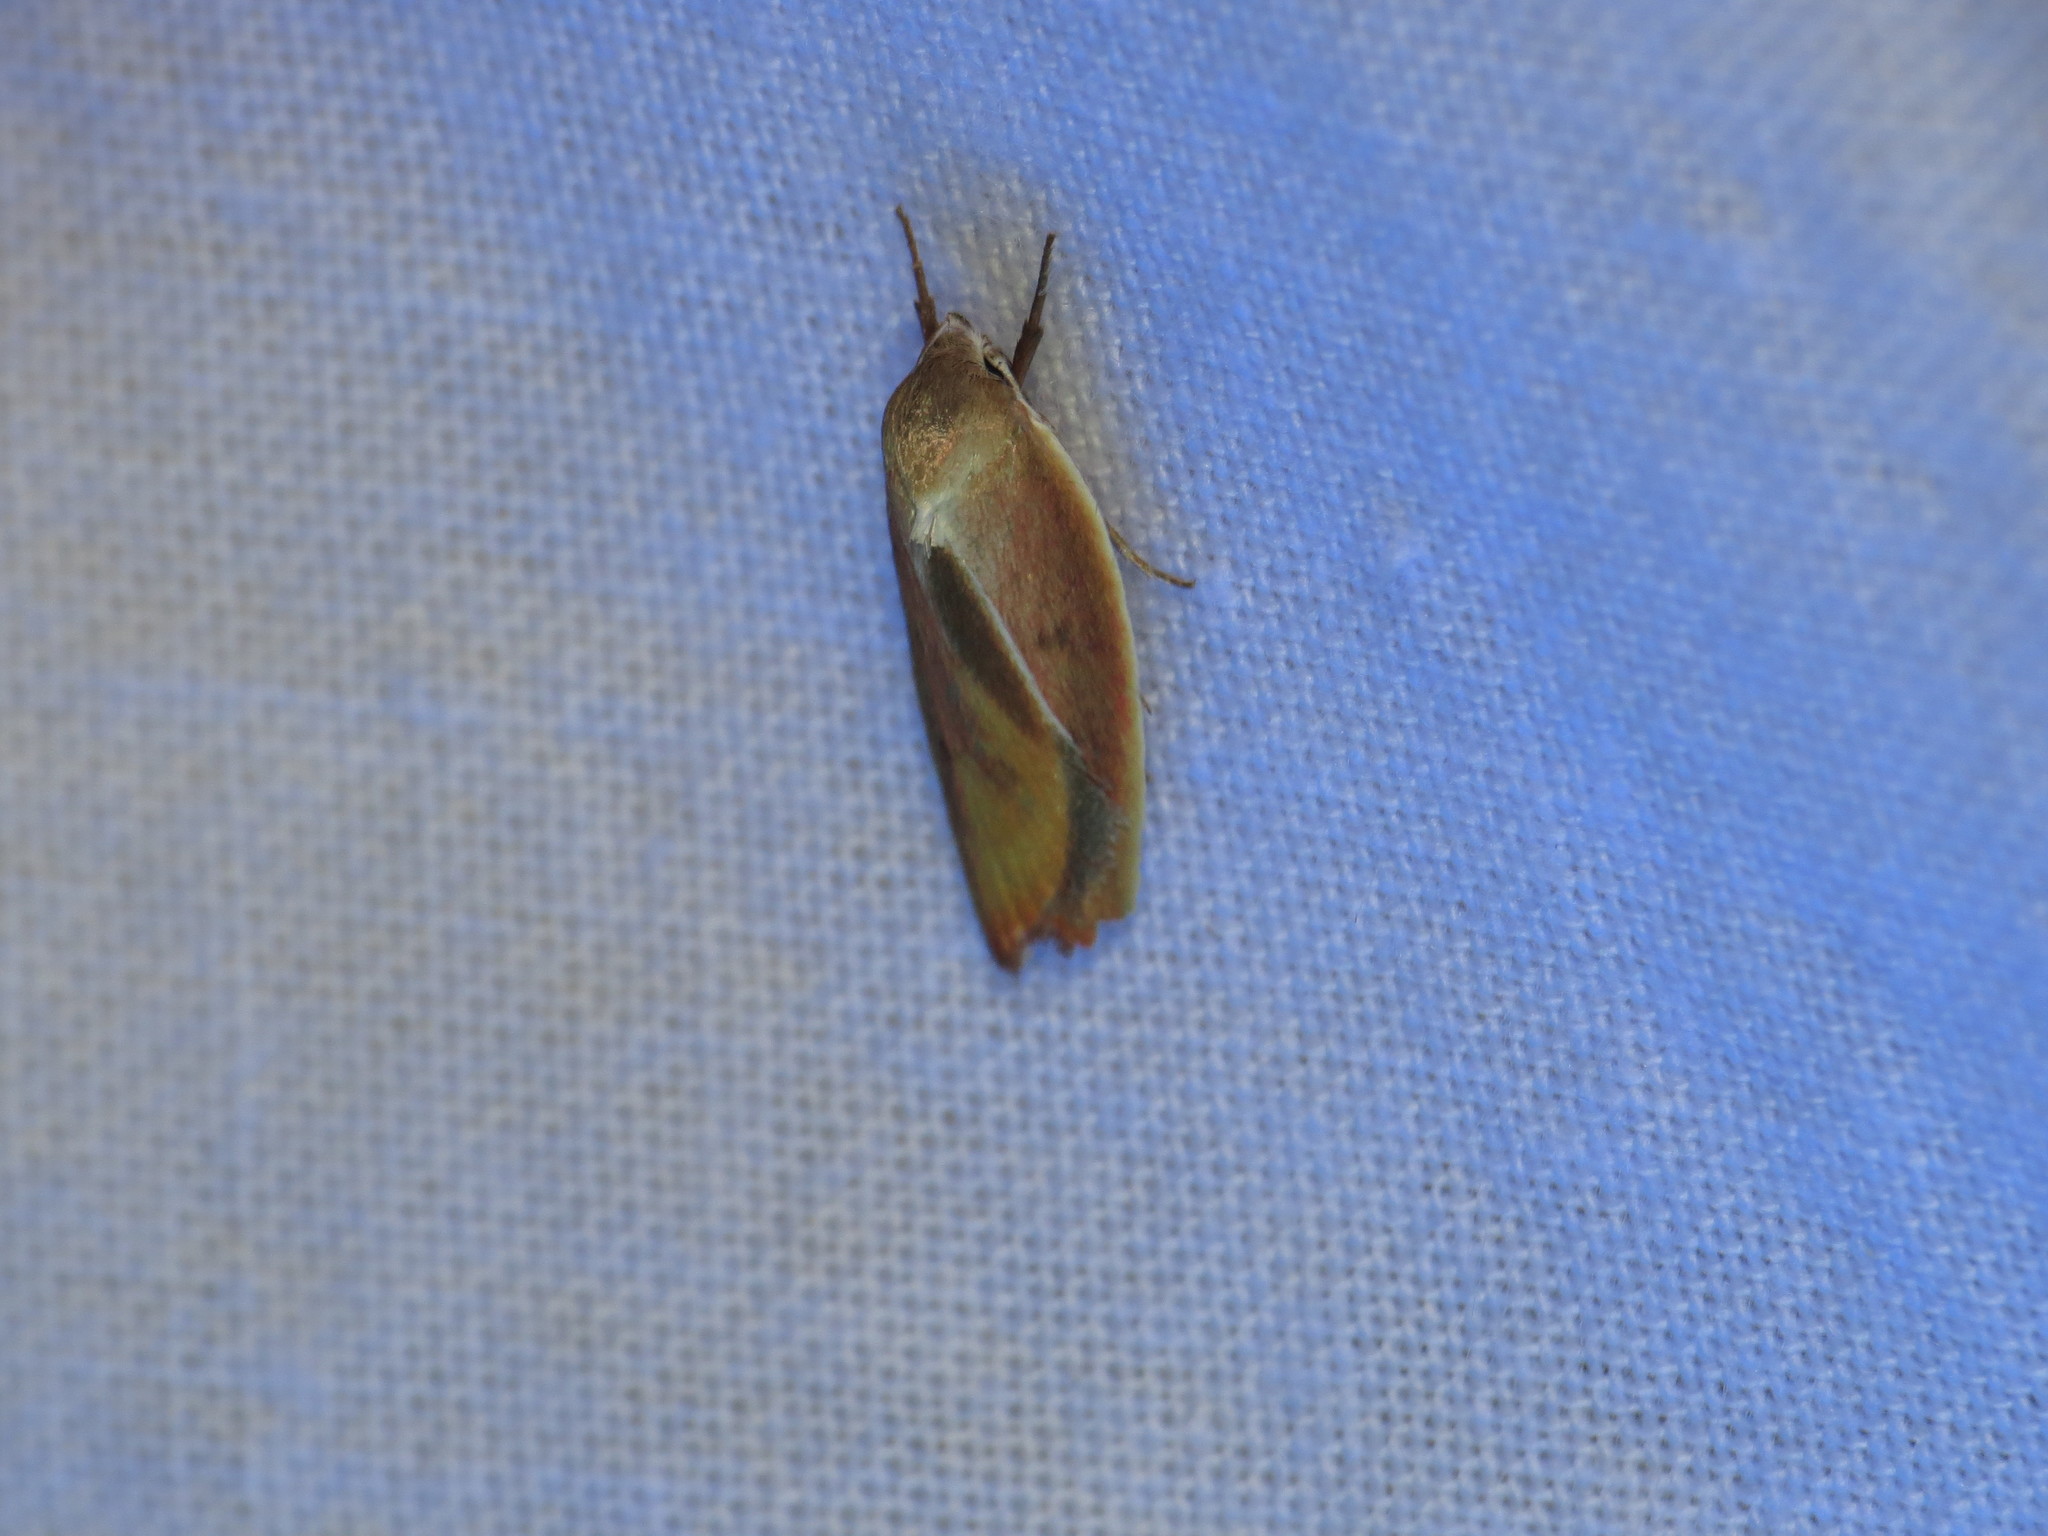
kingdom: Animalia
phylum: Arthropoda
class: Insecta
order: Lepidoptera
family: Oecophoridae
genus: Ptyoptila
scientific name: Ptyoptila matutinella
